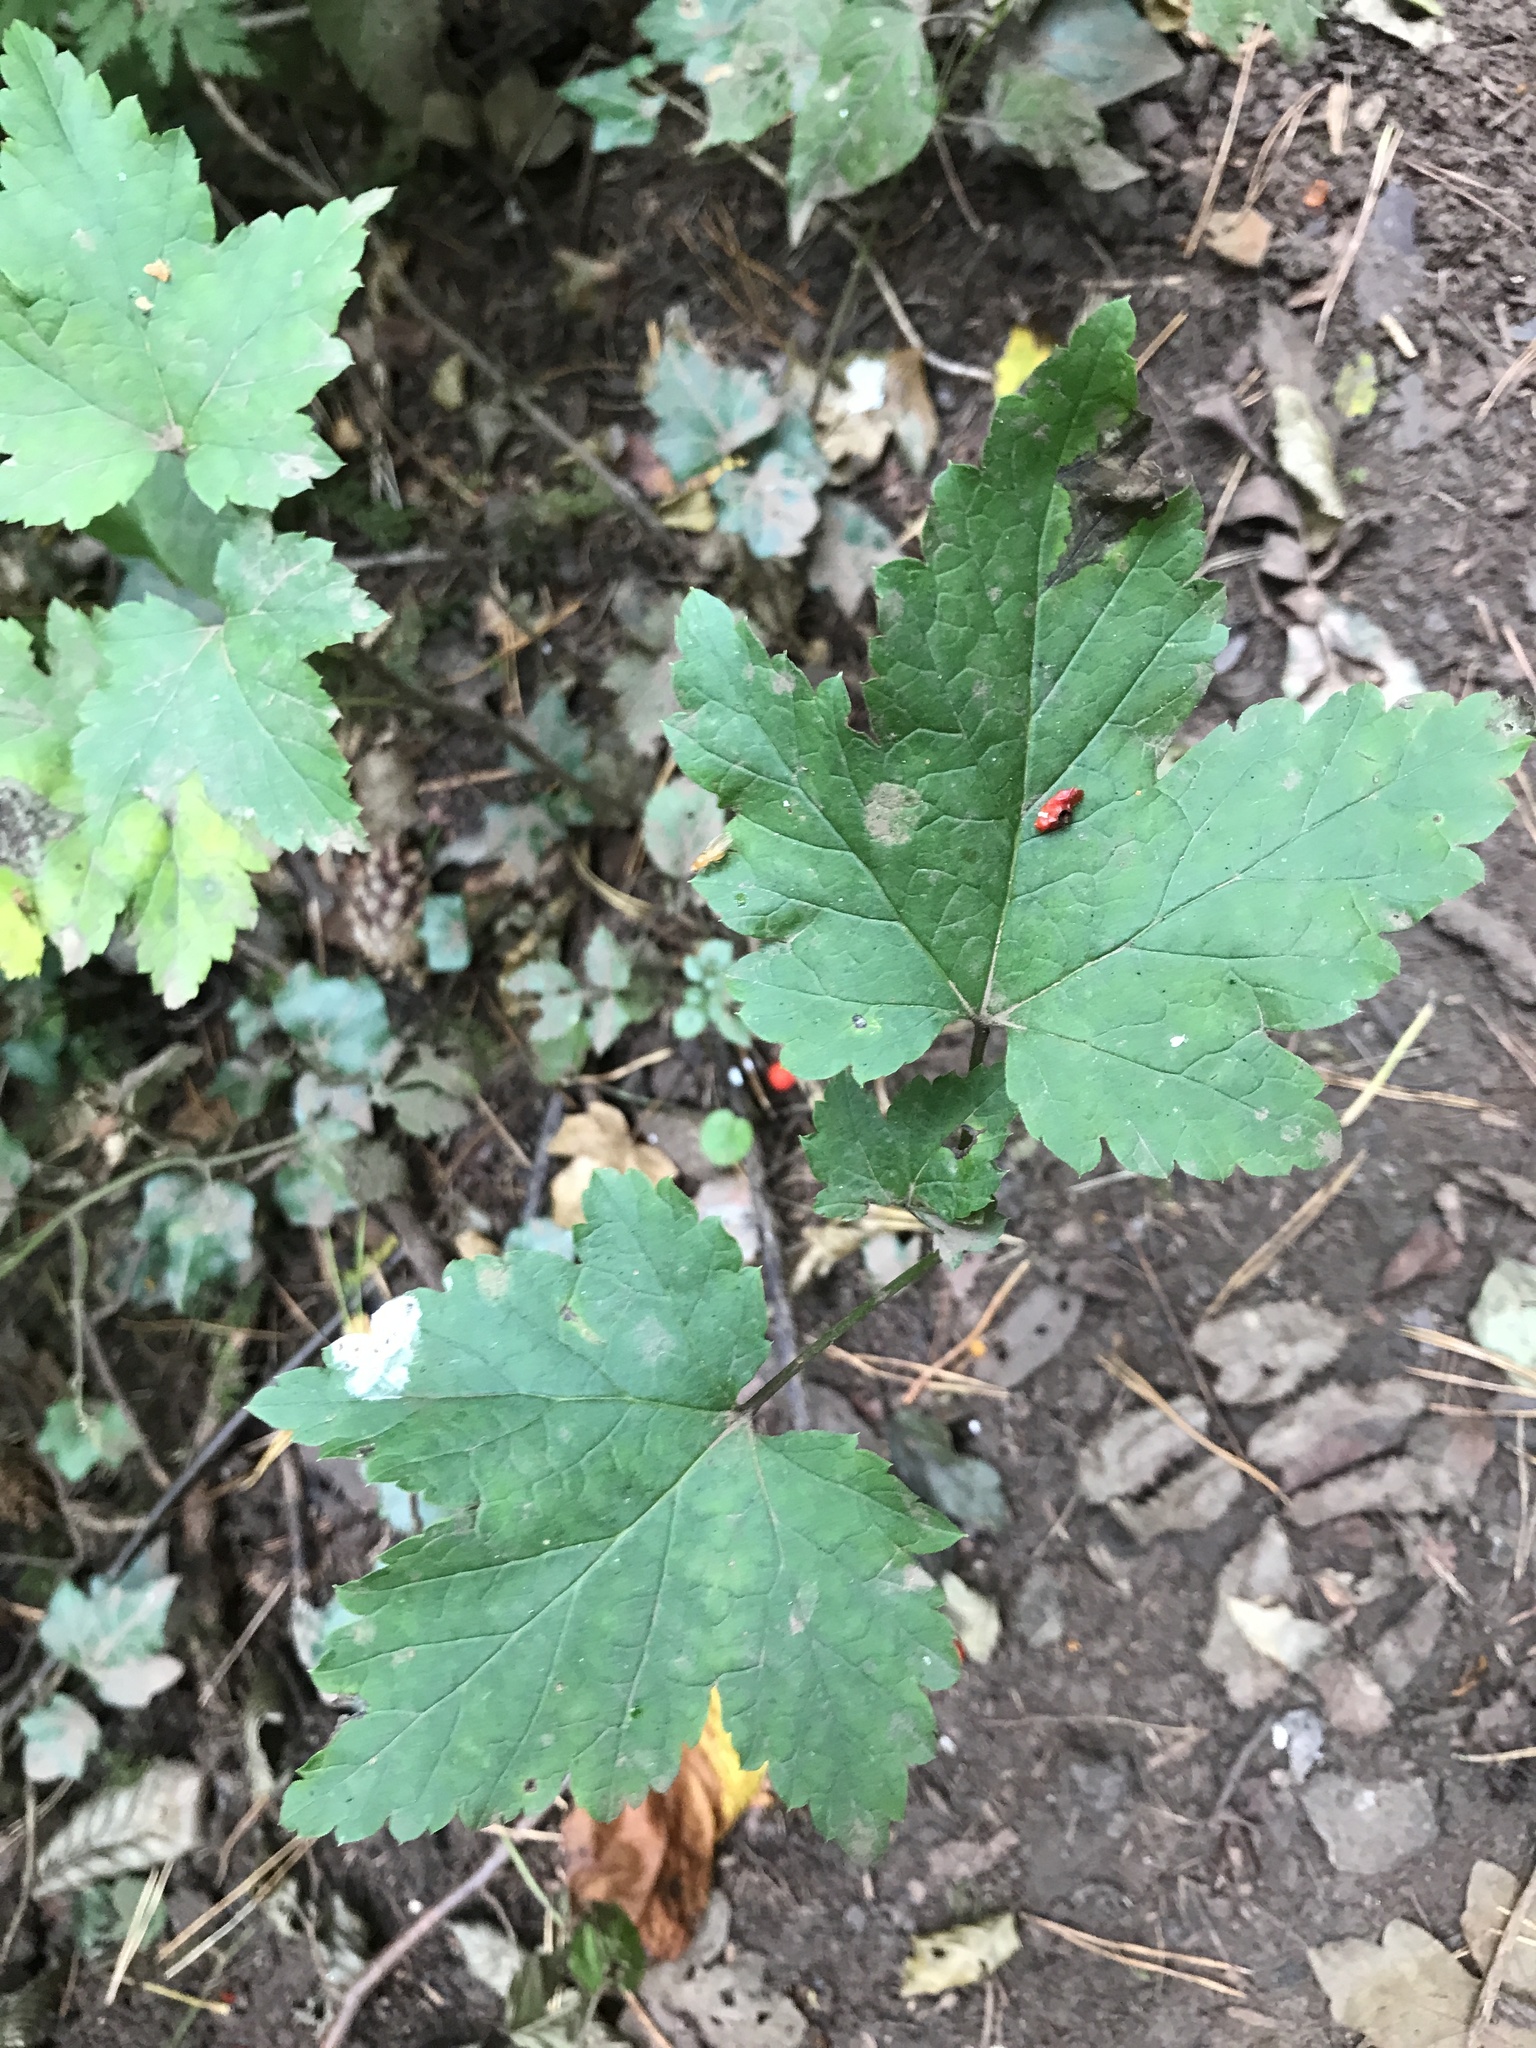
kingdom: Plantae
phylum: Tracheophyta
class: Magnoliopsida
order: Sapindales
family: Sapindaceae
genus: Acer
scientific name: Acer pseudoplatanus
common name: Sycamore
